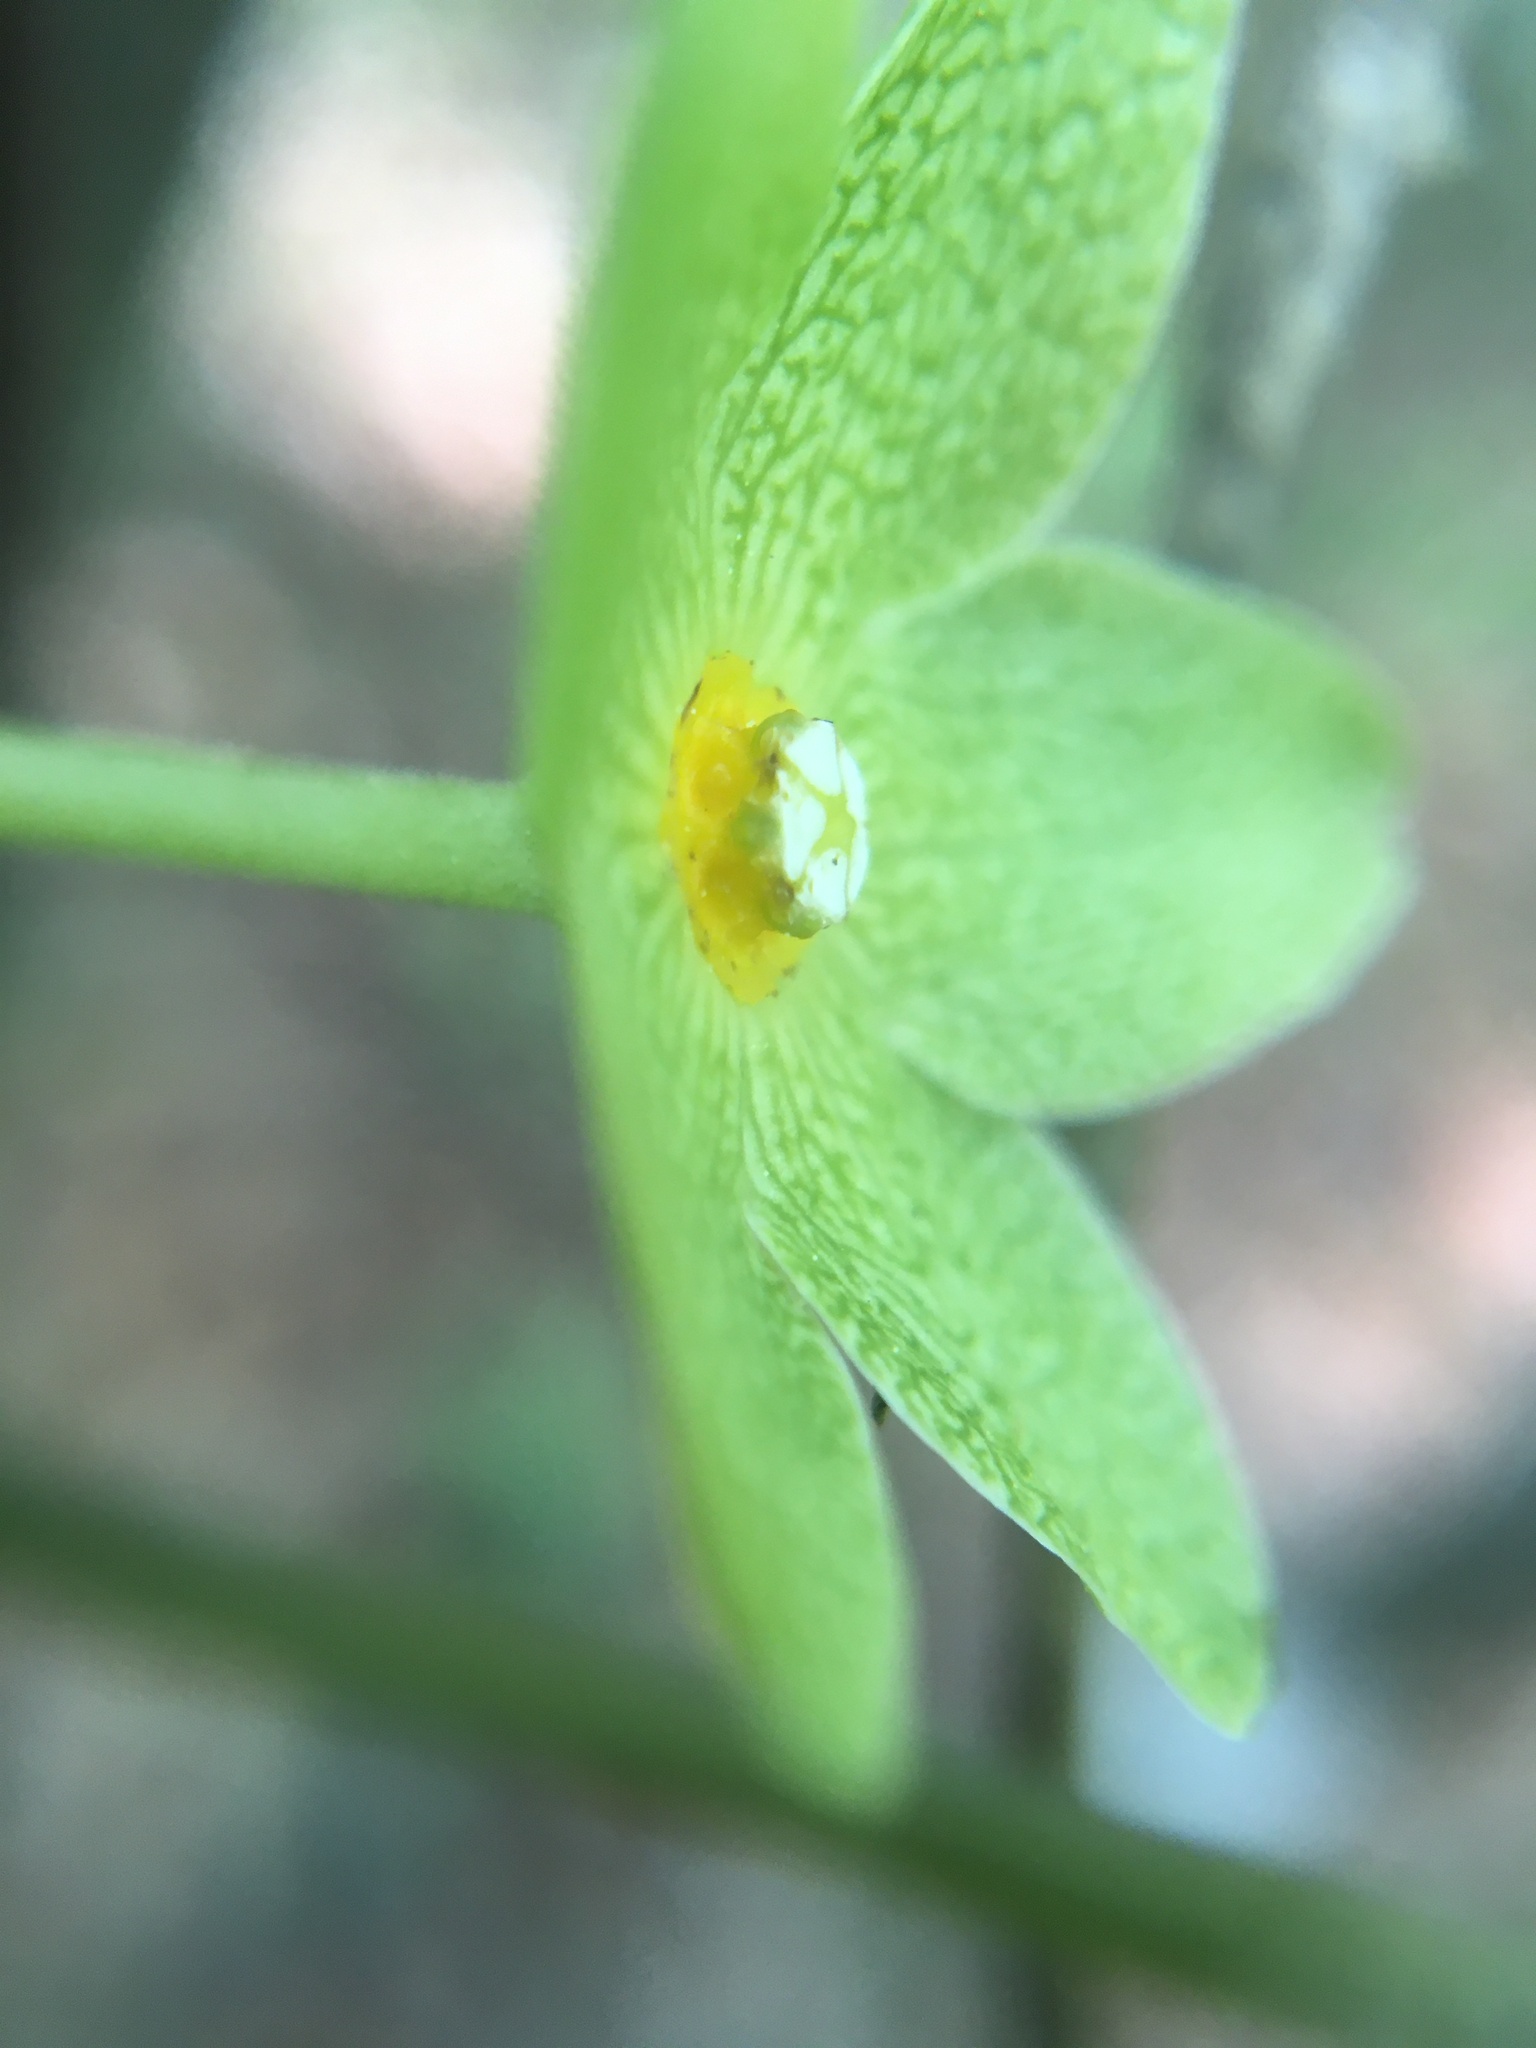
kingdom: Plantae
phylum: Tracheophyta
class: Magnoliopsida
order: Gentianales
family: Apocynaceae
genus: Matelea
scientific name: Matelea alabamensis
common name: Alabama milkvine
